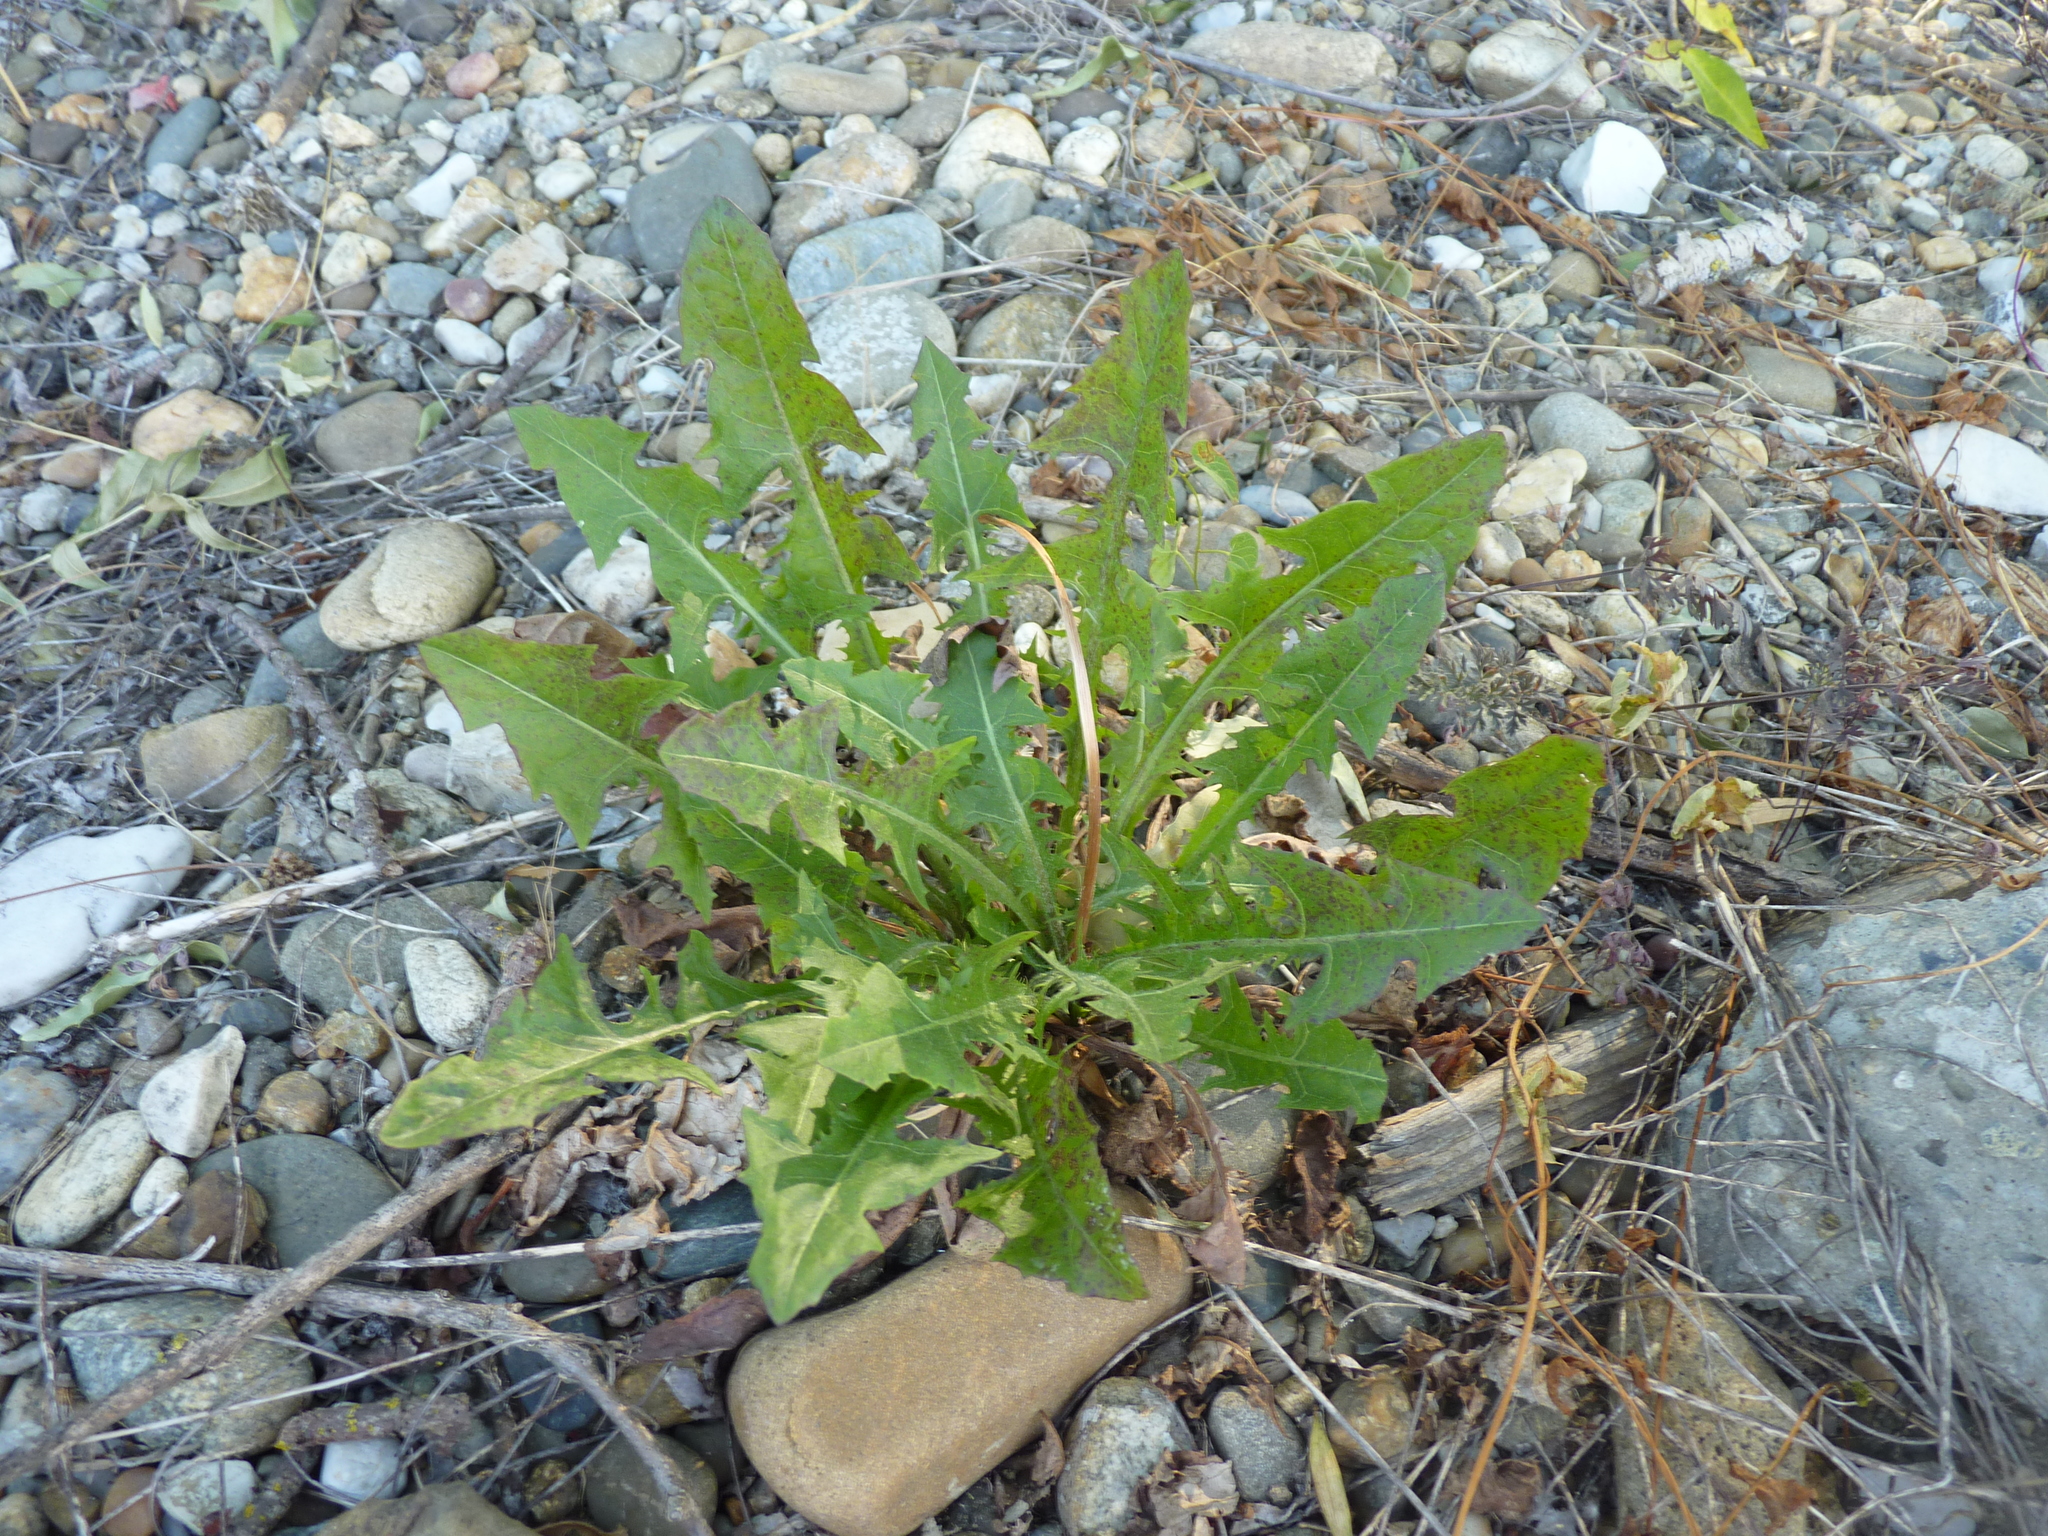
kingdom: Plantae
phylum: Tracheophyta
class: Magnoliopsida
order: Asterales
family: Asteraceae
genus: Taraxacum
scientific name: Taraxacum
